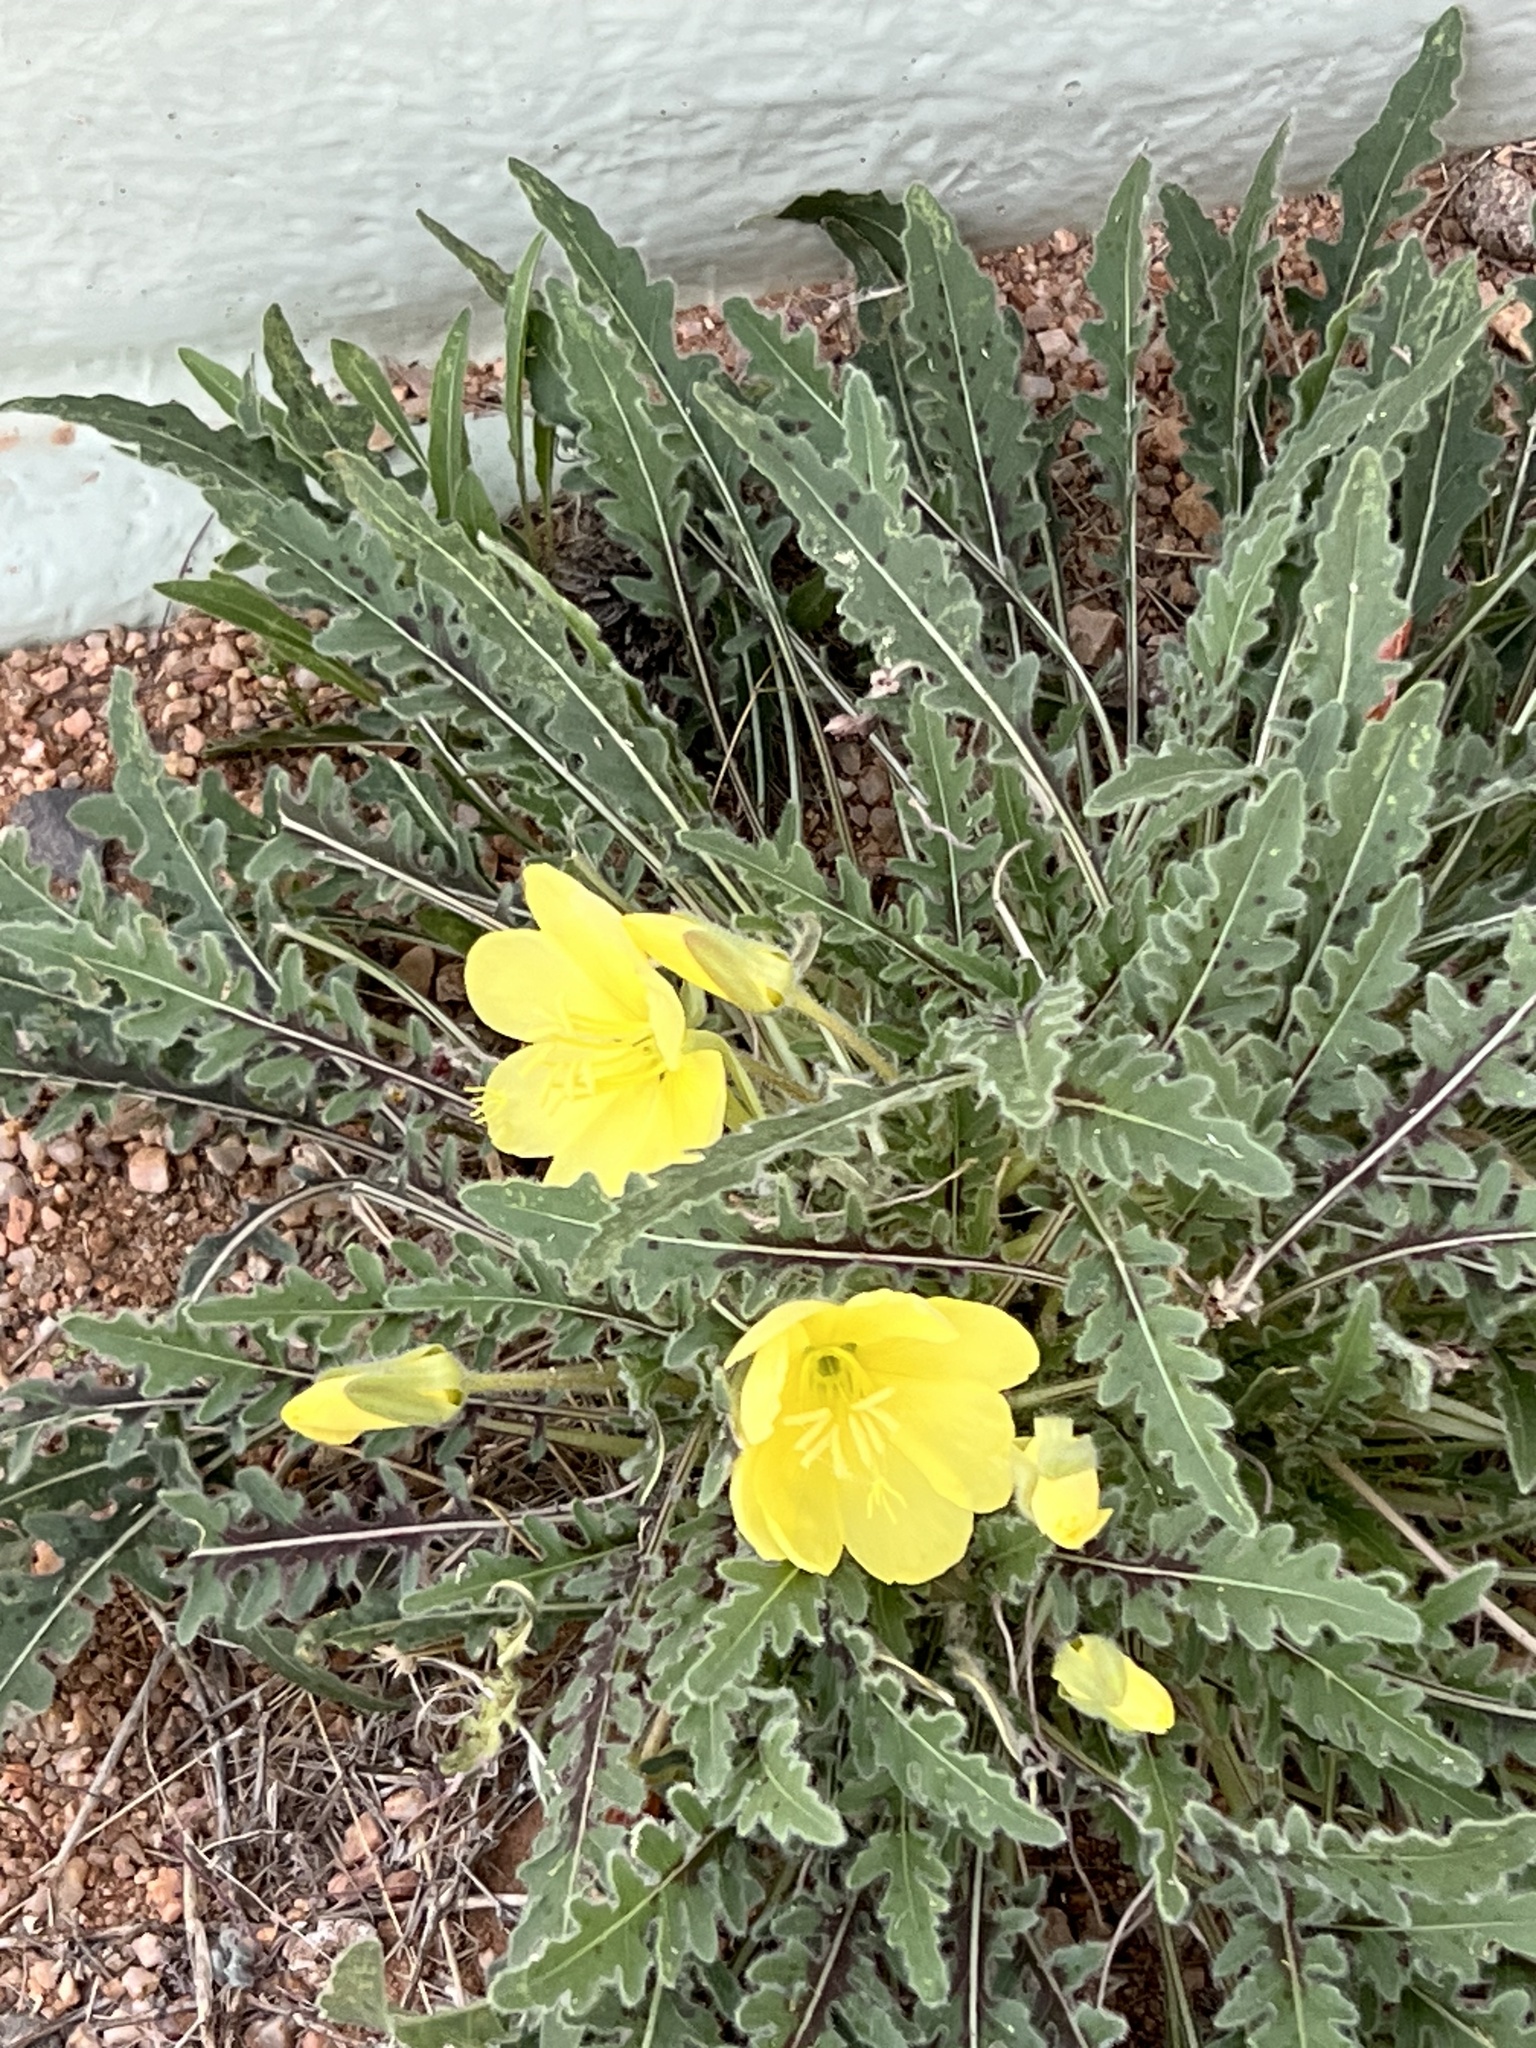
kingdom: Plantae
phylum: Tracheophyta
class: Magnoliopsida
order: Myrtales
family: Onagraceae
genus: Oenothera
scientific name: Oenothera primiveris
